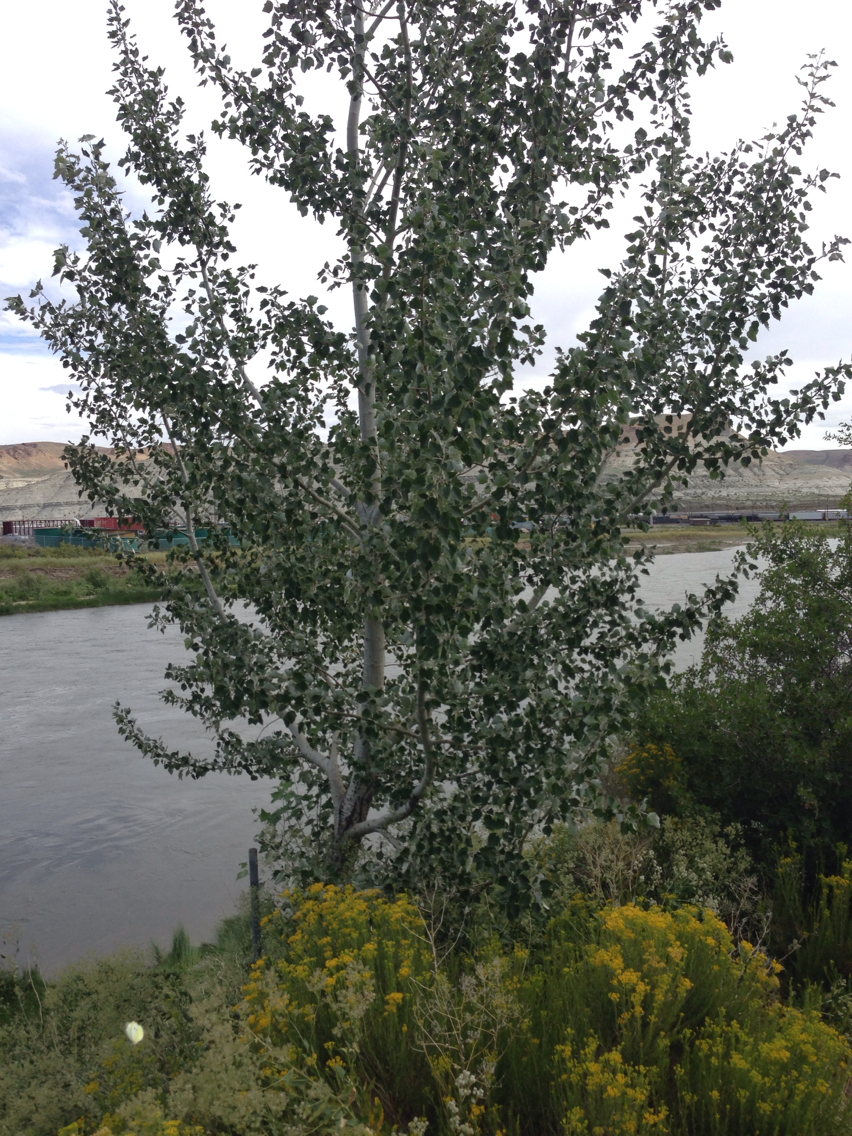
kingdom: Plantae
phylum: Tracheophyta
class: Magnoliopsida
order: Malpighiales
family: Salicaceae
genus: Populus
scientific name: Populus alba
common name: White poplar
